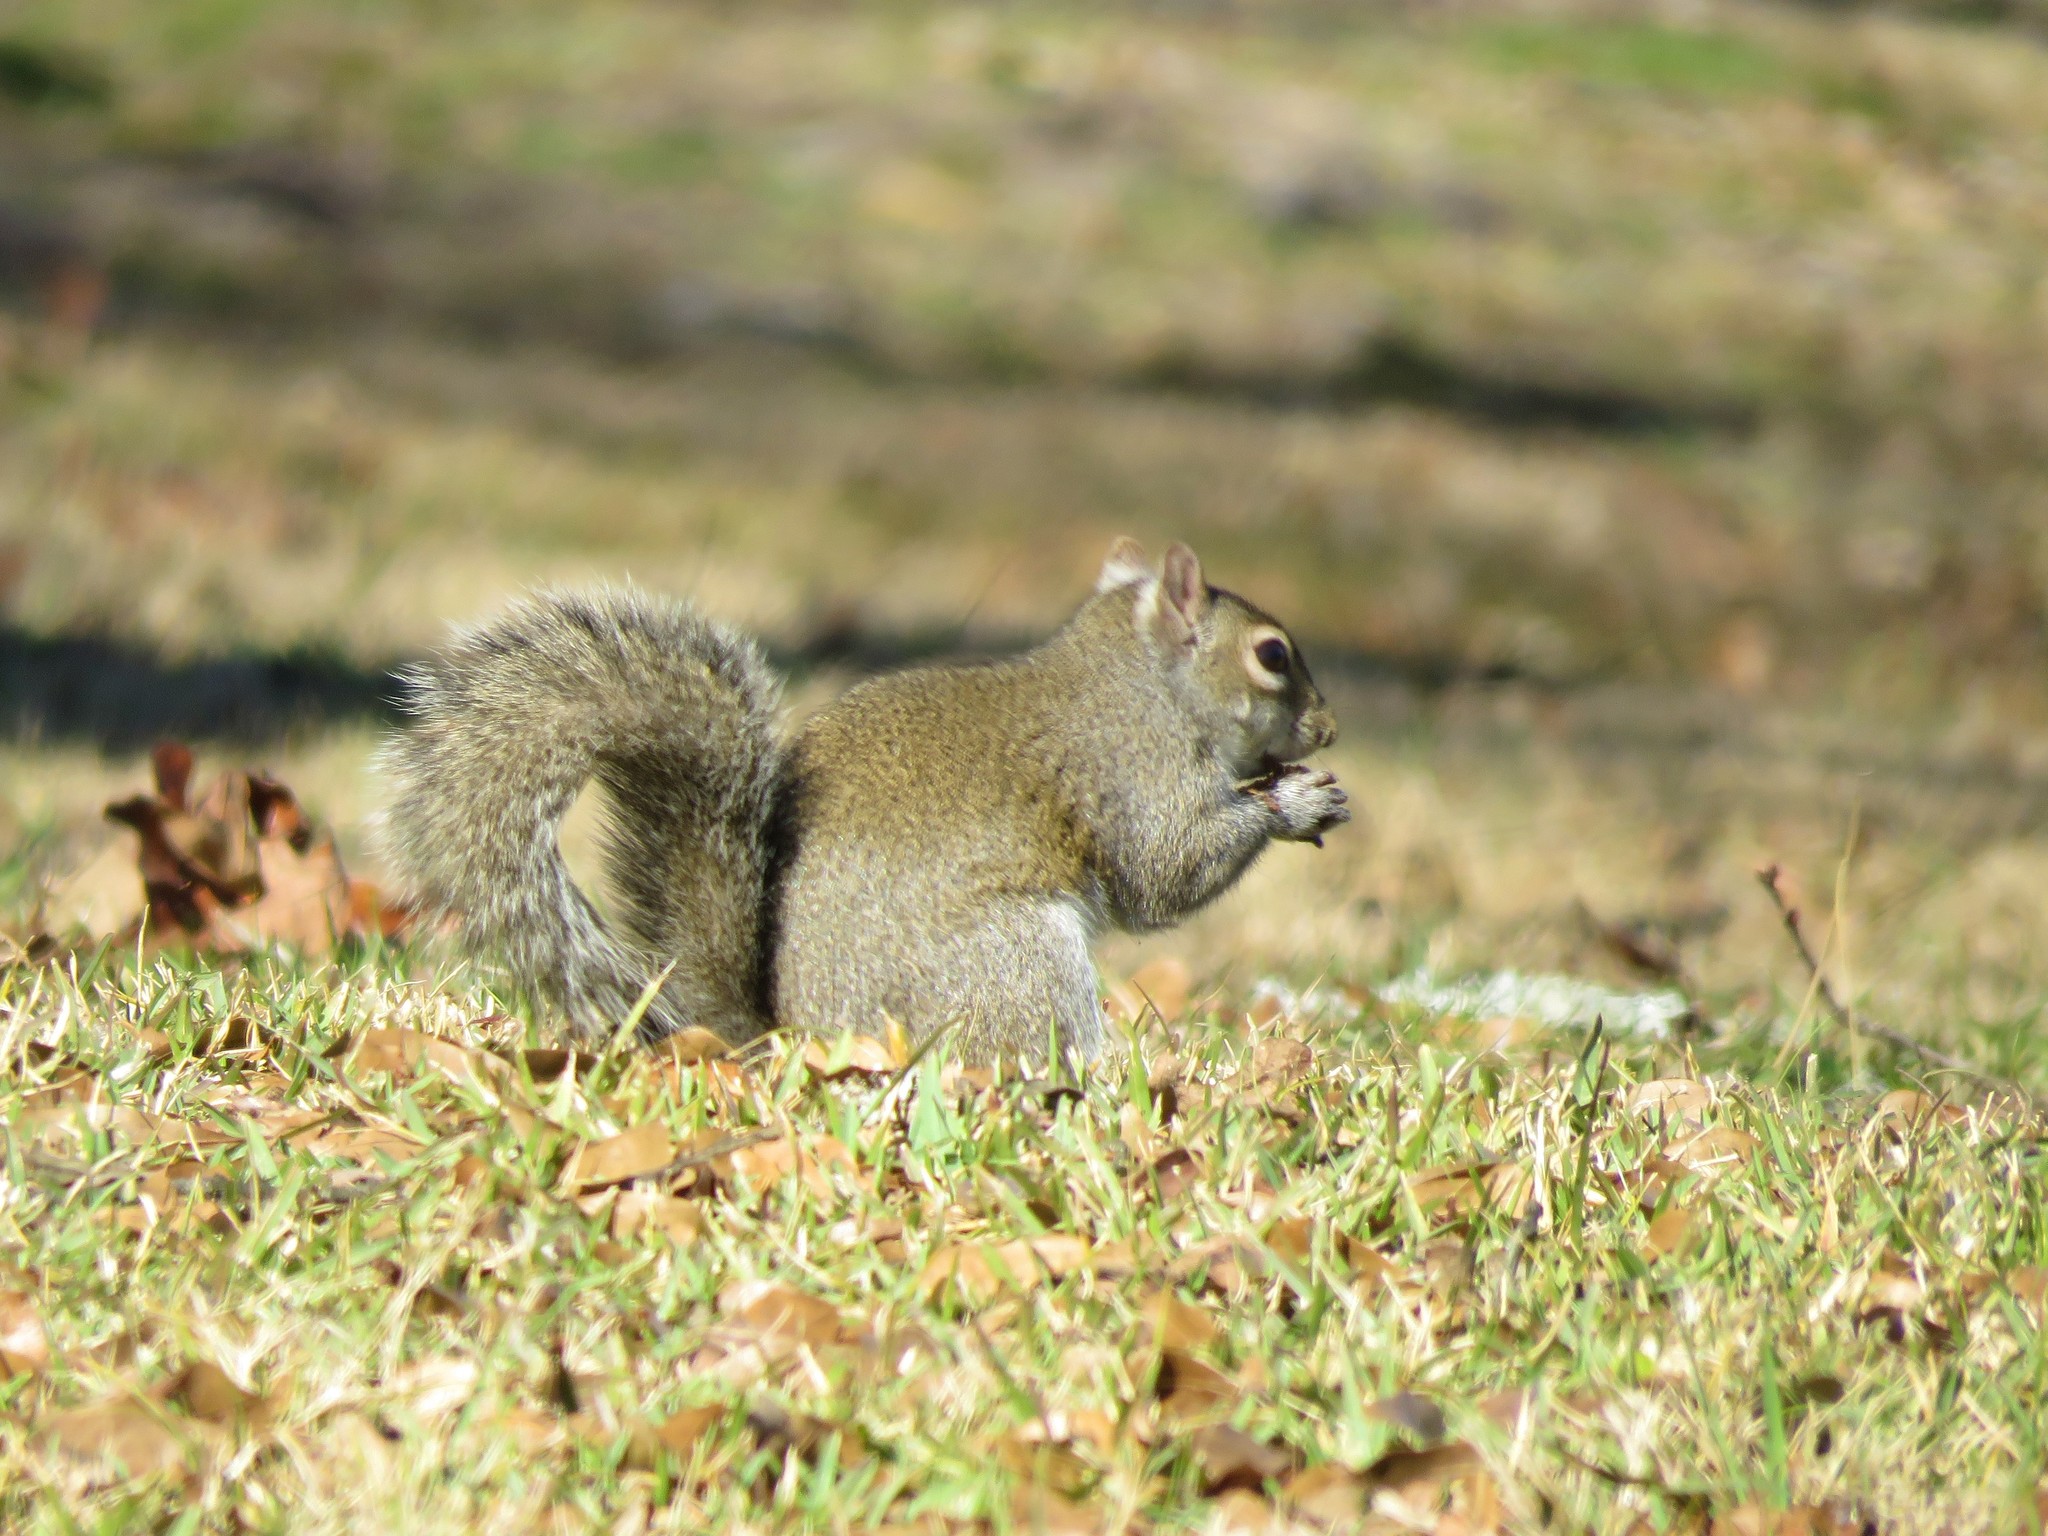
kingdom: Animalia
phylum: Chordata
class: Mammalia
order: Rodentia
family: Sciuridae
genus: Sciurus
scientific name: Sciurus carolinensis
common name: Eastern gray squirrel
